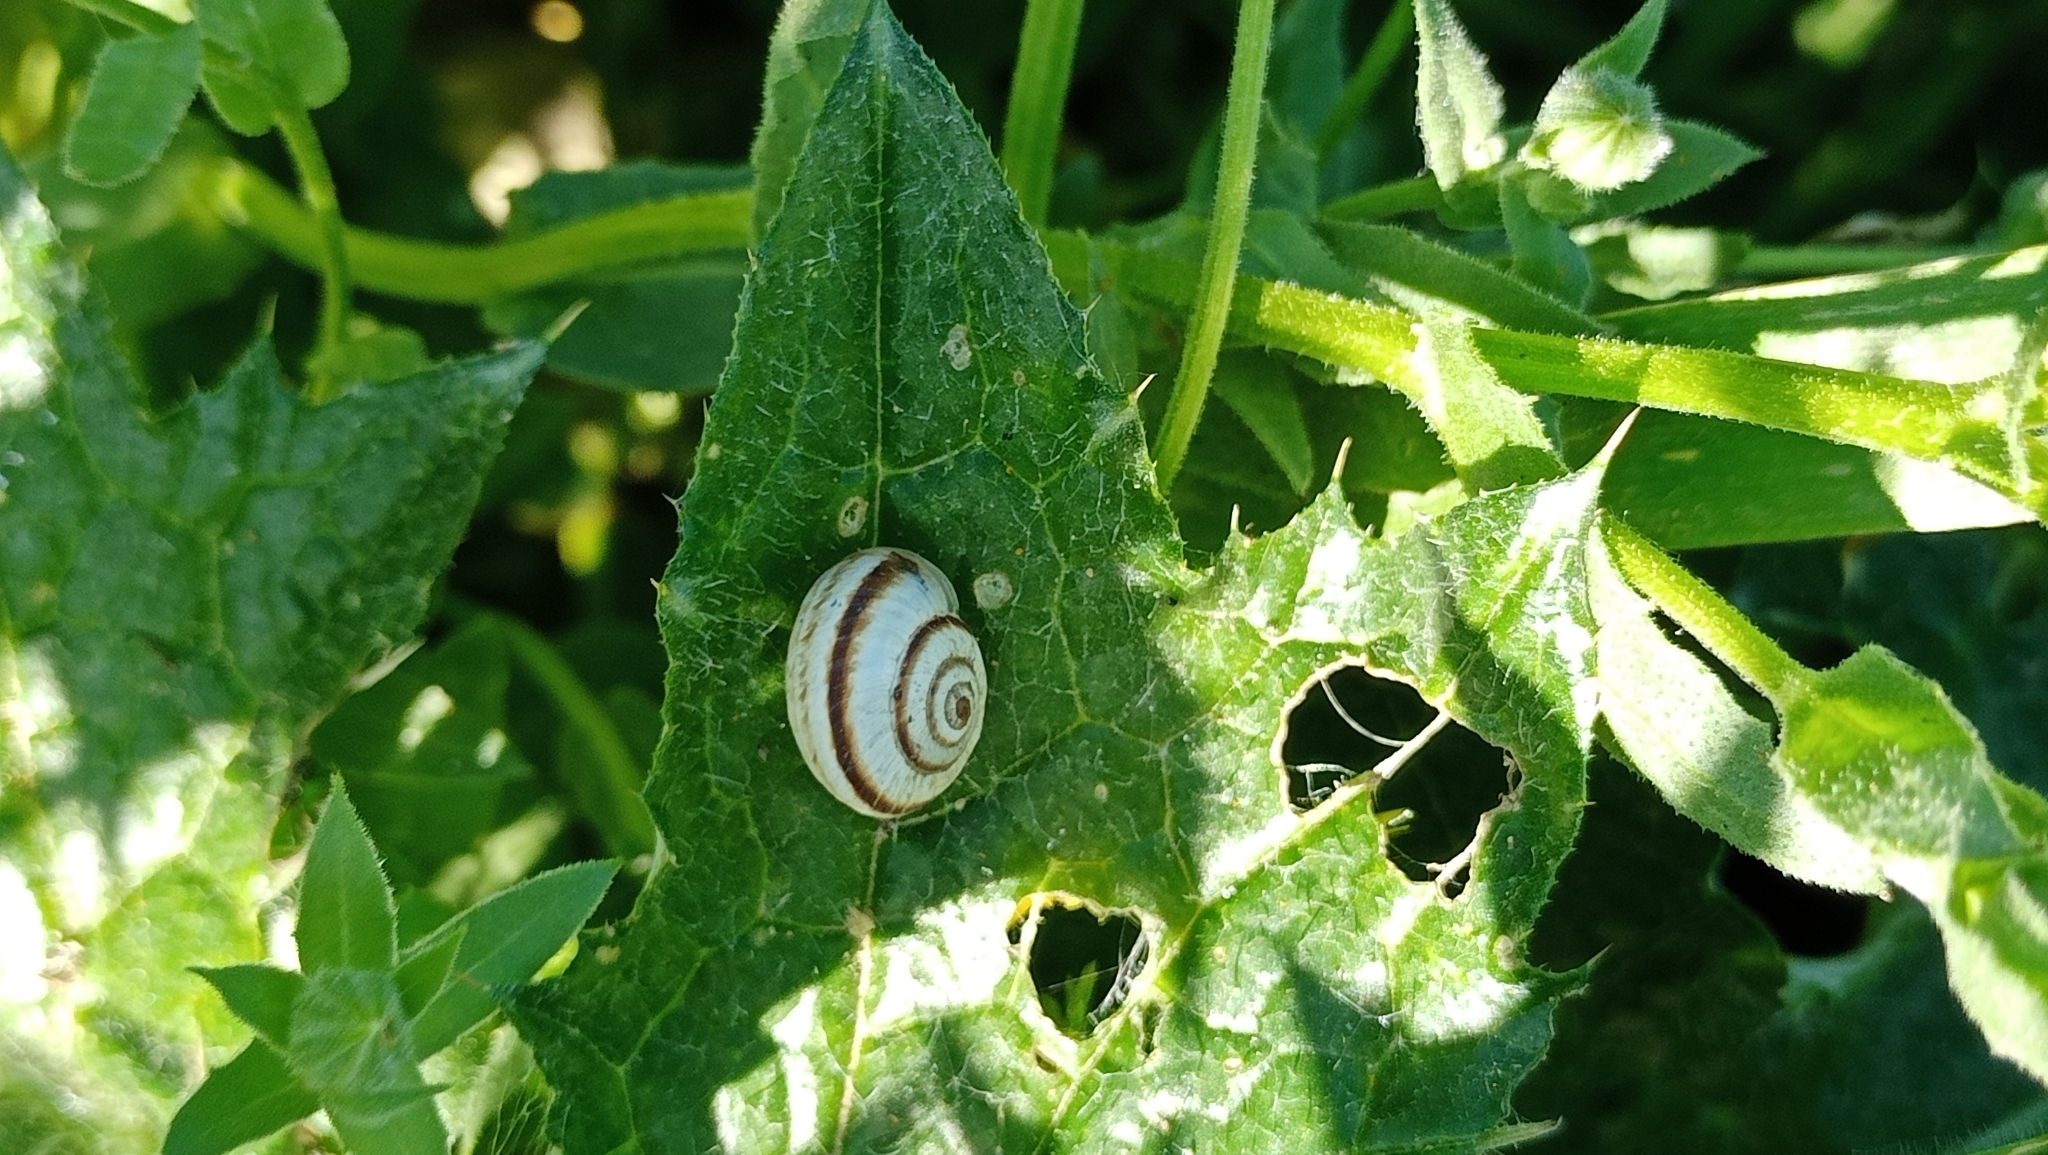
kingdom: Animalia
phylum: Mollusca
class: Gastropoda
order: Stylommatophora
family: Geomitridae
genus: Cernuella
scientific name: Cernuella virgata
